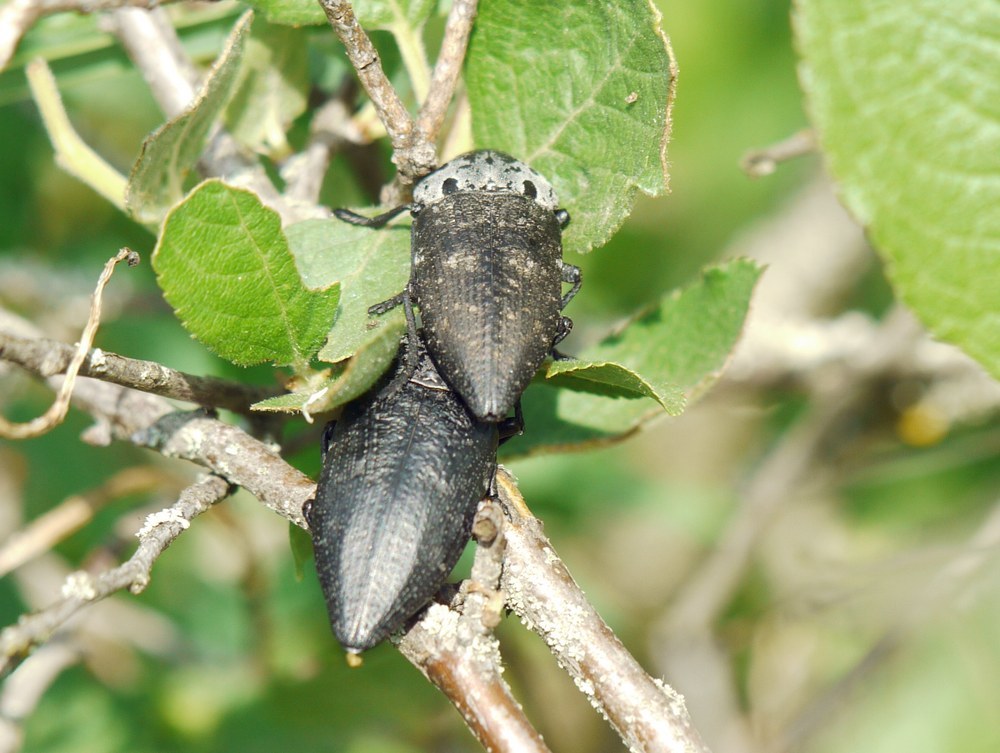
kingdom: Animalia
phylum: Arthropoda
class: Insecta
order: Coleoptera
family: Buprestidae
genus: Capnodis
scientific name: Capnodis tenebrionis
